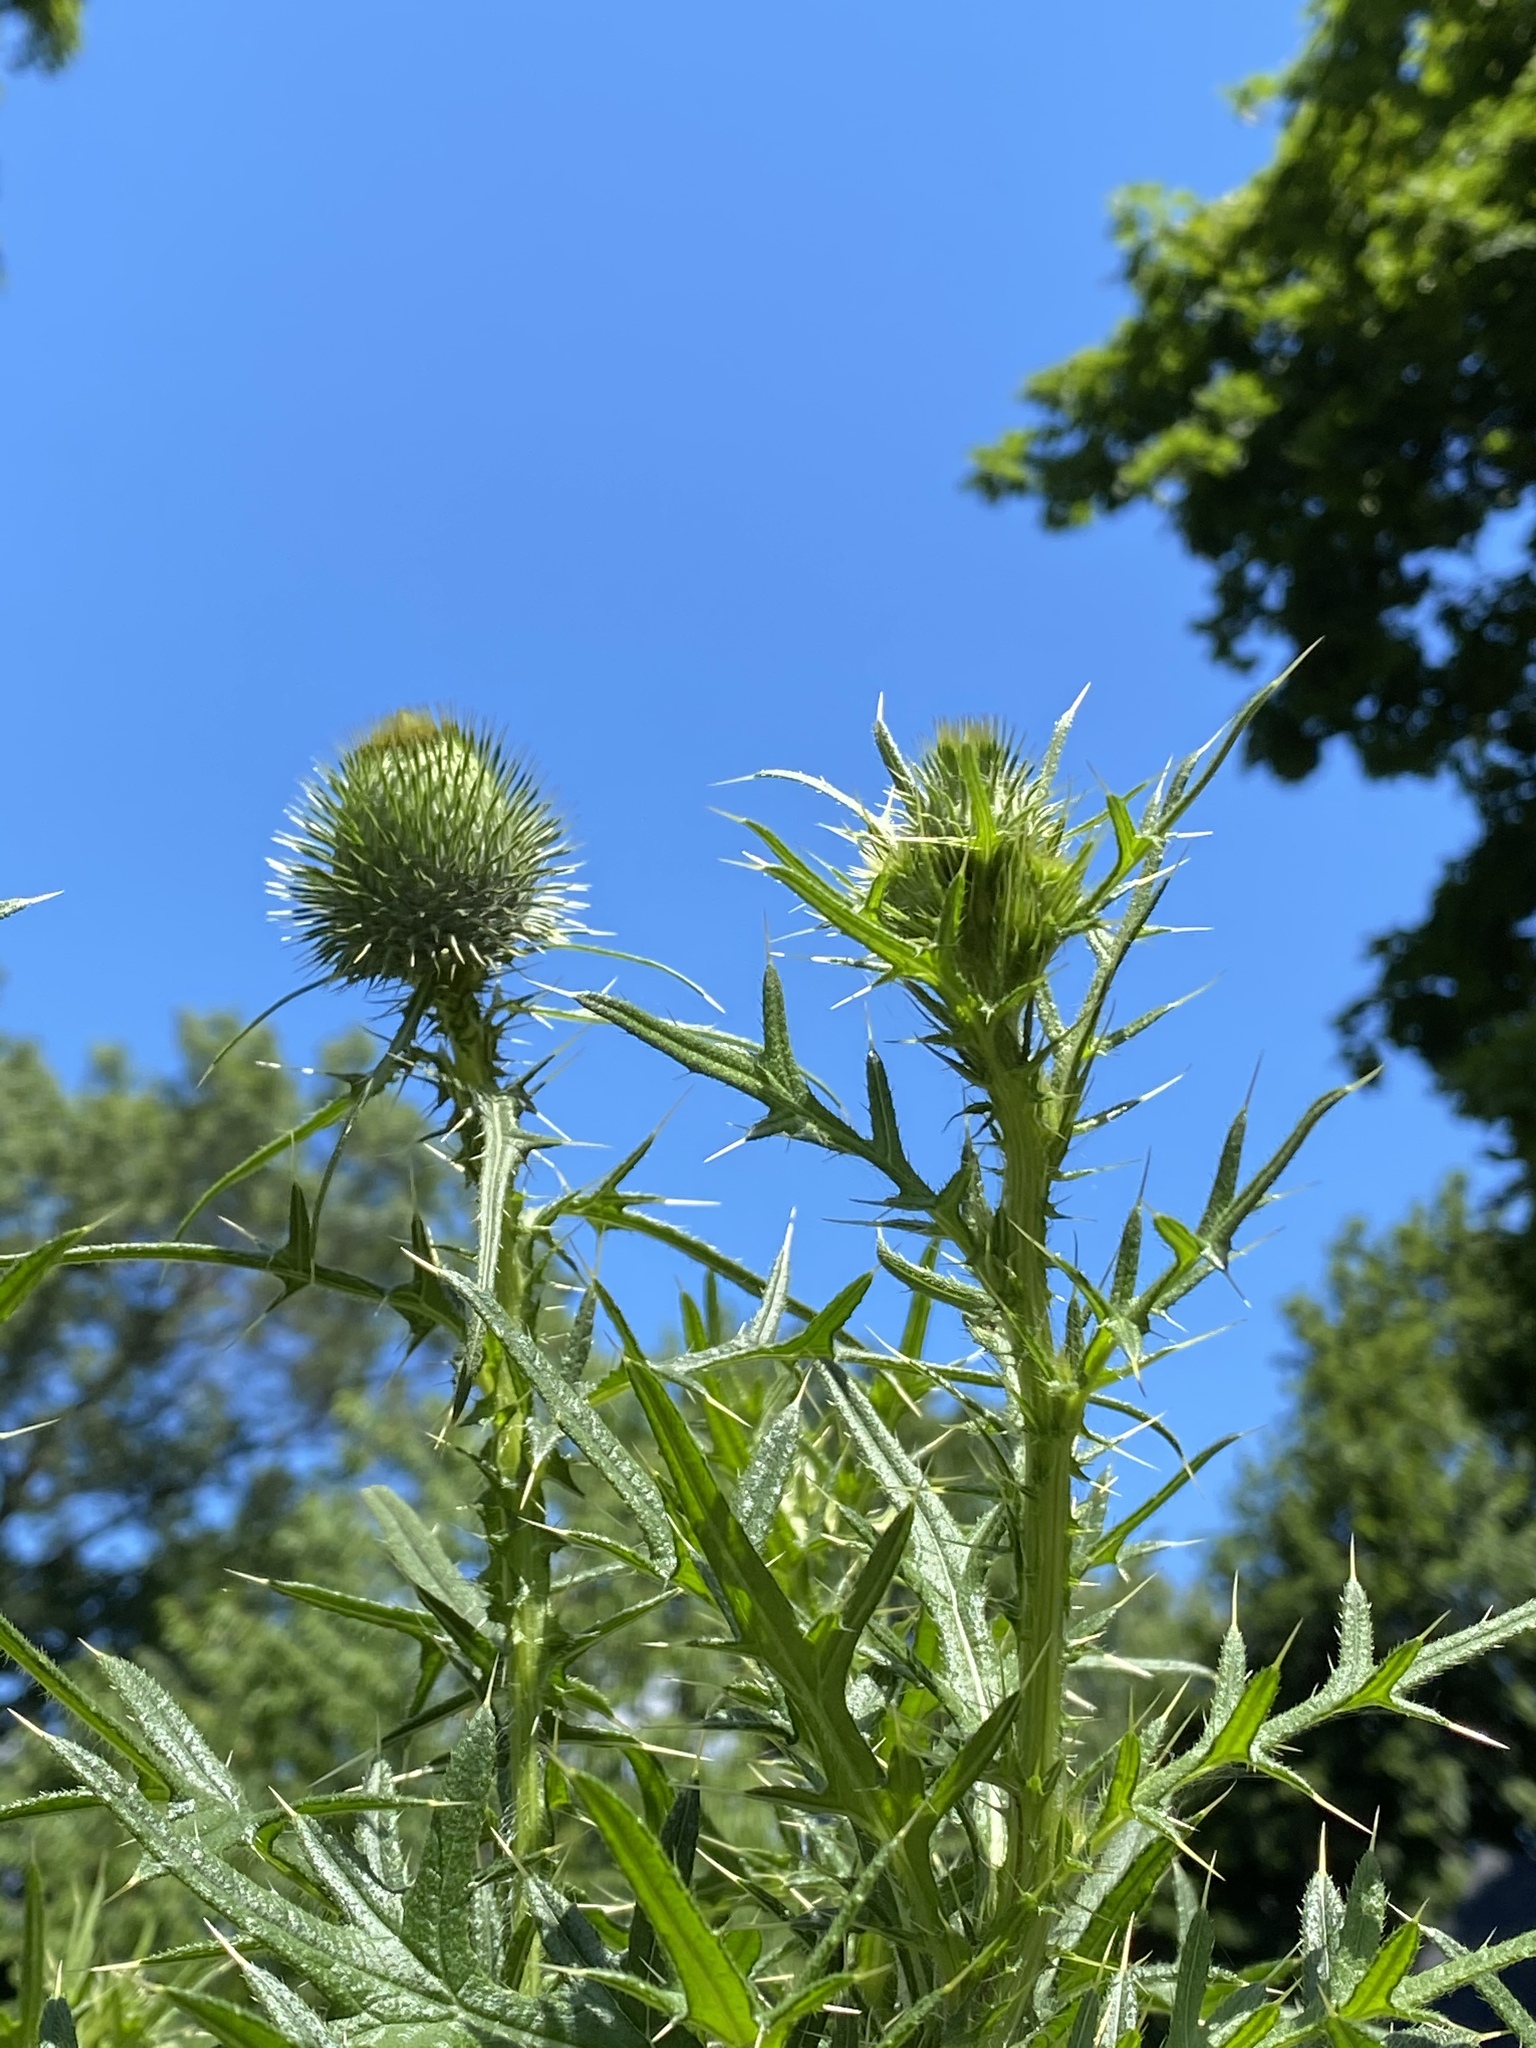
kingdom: Plantae
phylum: Tracheophyta
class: Magnoliopsida
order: Asterales
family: Asteraceae
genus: Cirsium
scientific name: Cirsium vulgare
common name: Bull thistle
